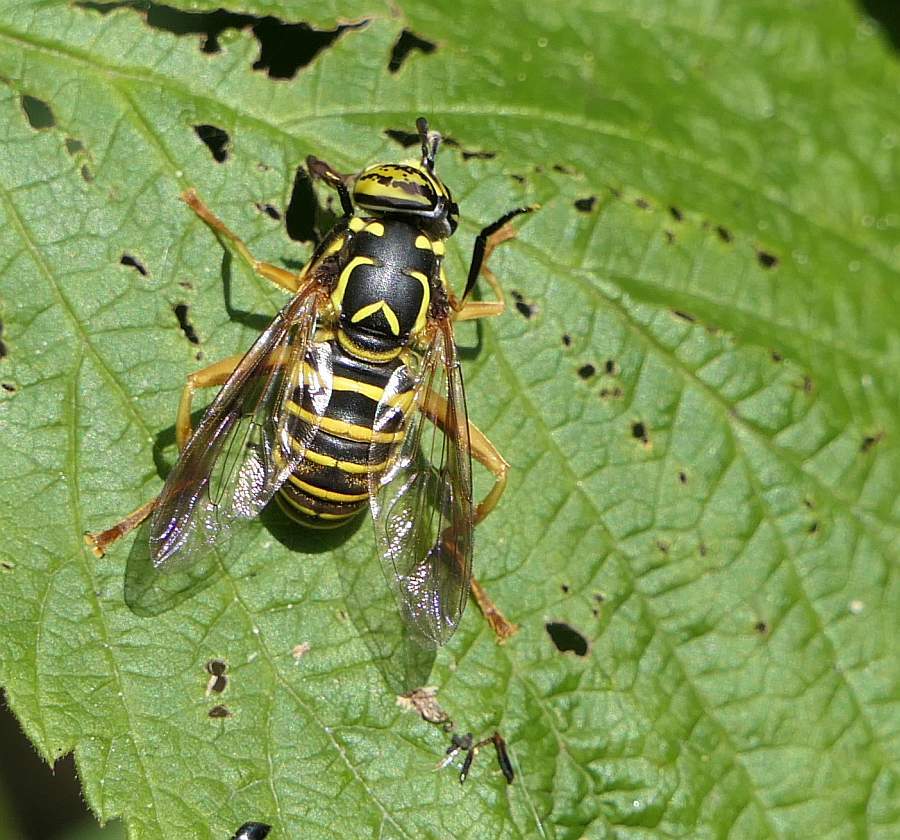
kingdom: Animalia
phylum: Arthropoda
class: Insecta
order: Diptera
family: Syrphidae
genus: Spilomyia
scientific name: Spilomyia longicornis
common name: Eastern hornet fly
